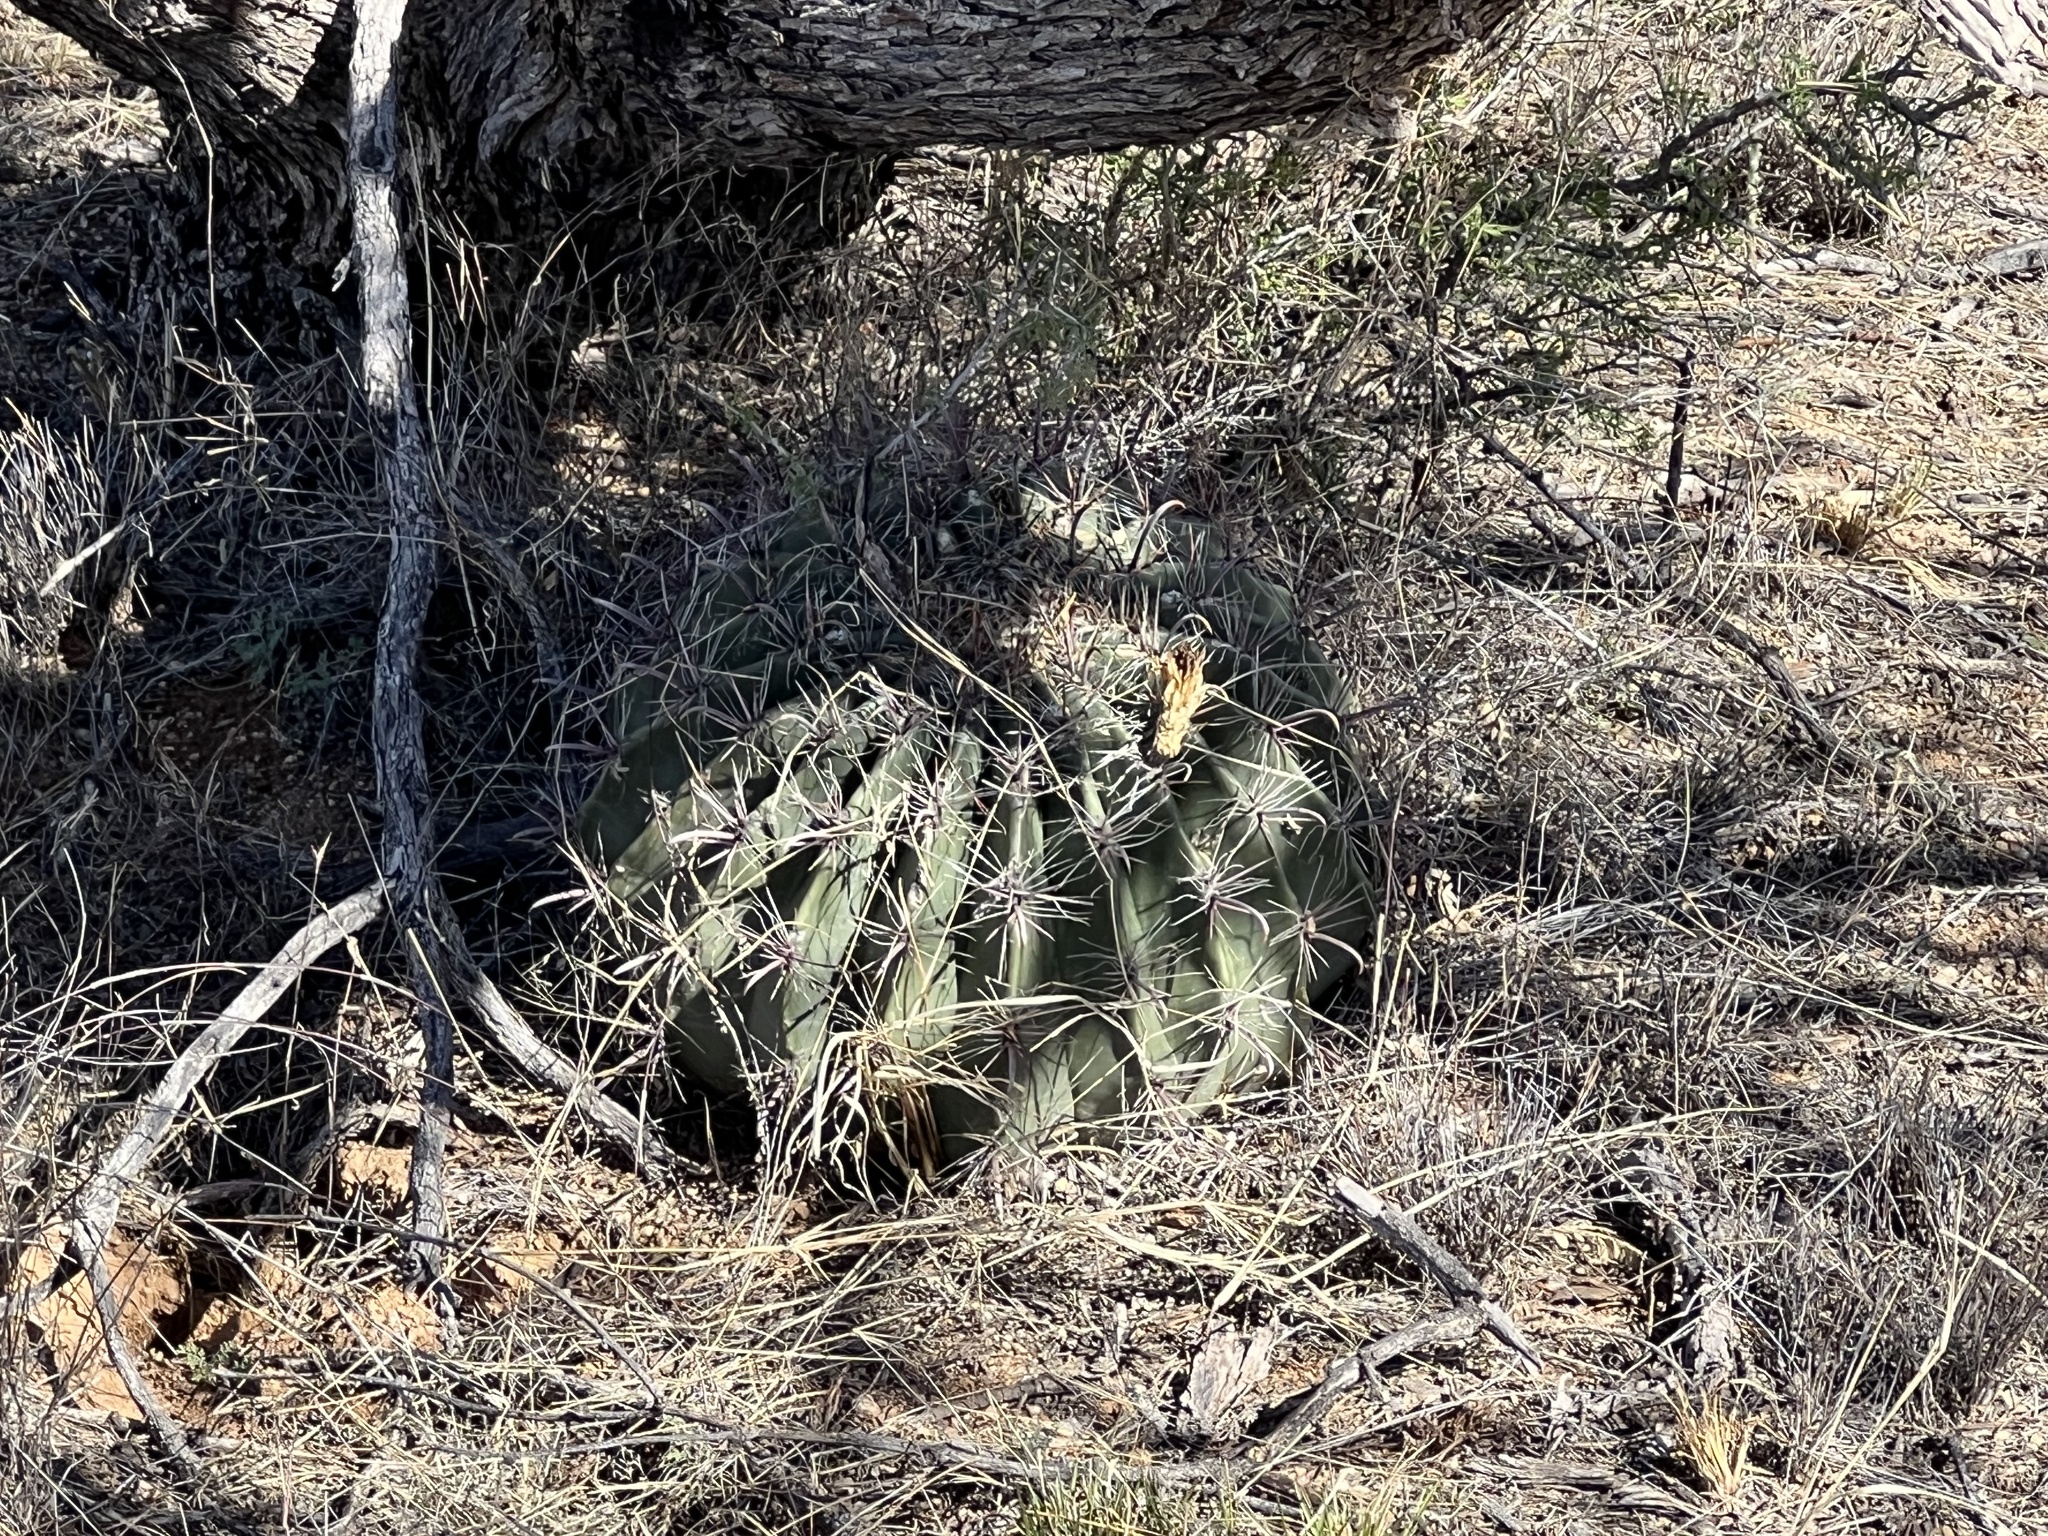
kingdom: Plantae
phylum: Tracheophyta
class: Magnoliopsida
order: Caryophyllales
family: Cactaceae
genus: Ferocactus
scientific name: Ferocactus wislizeni
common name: Candy barrel cactus
